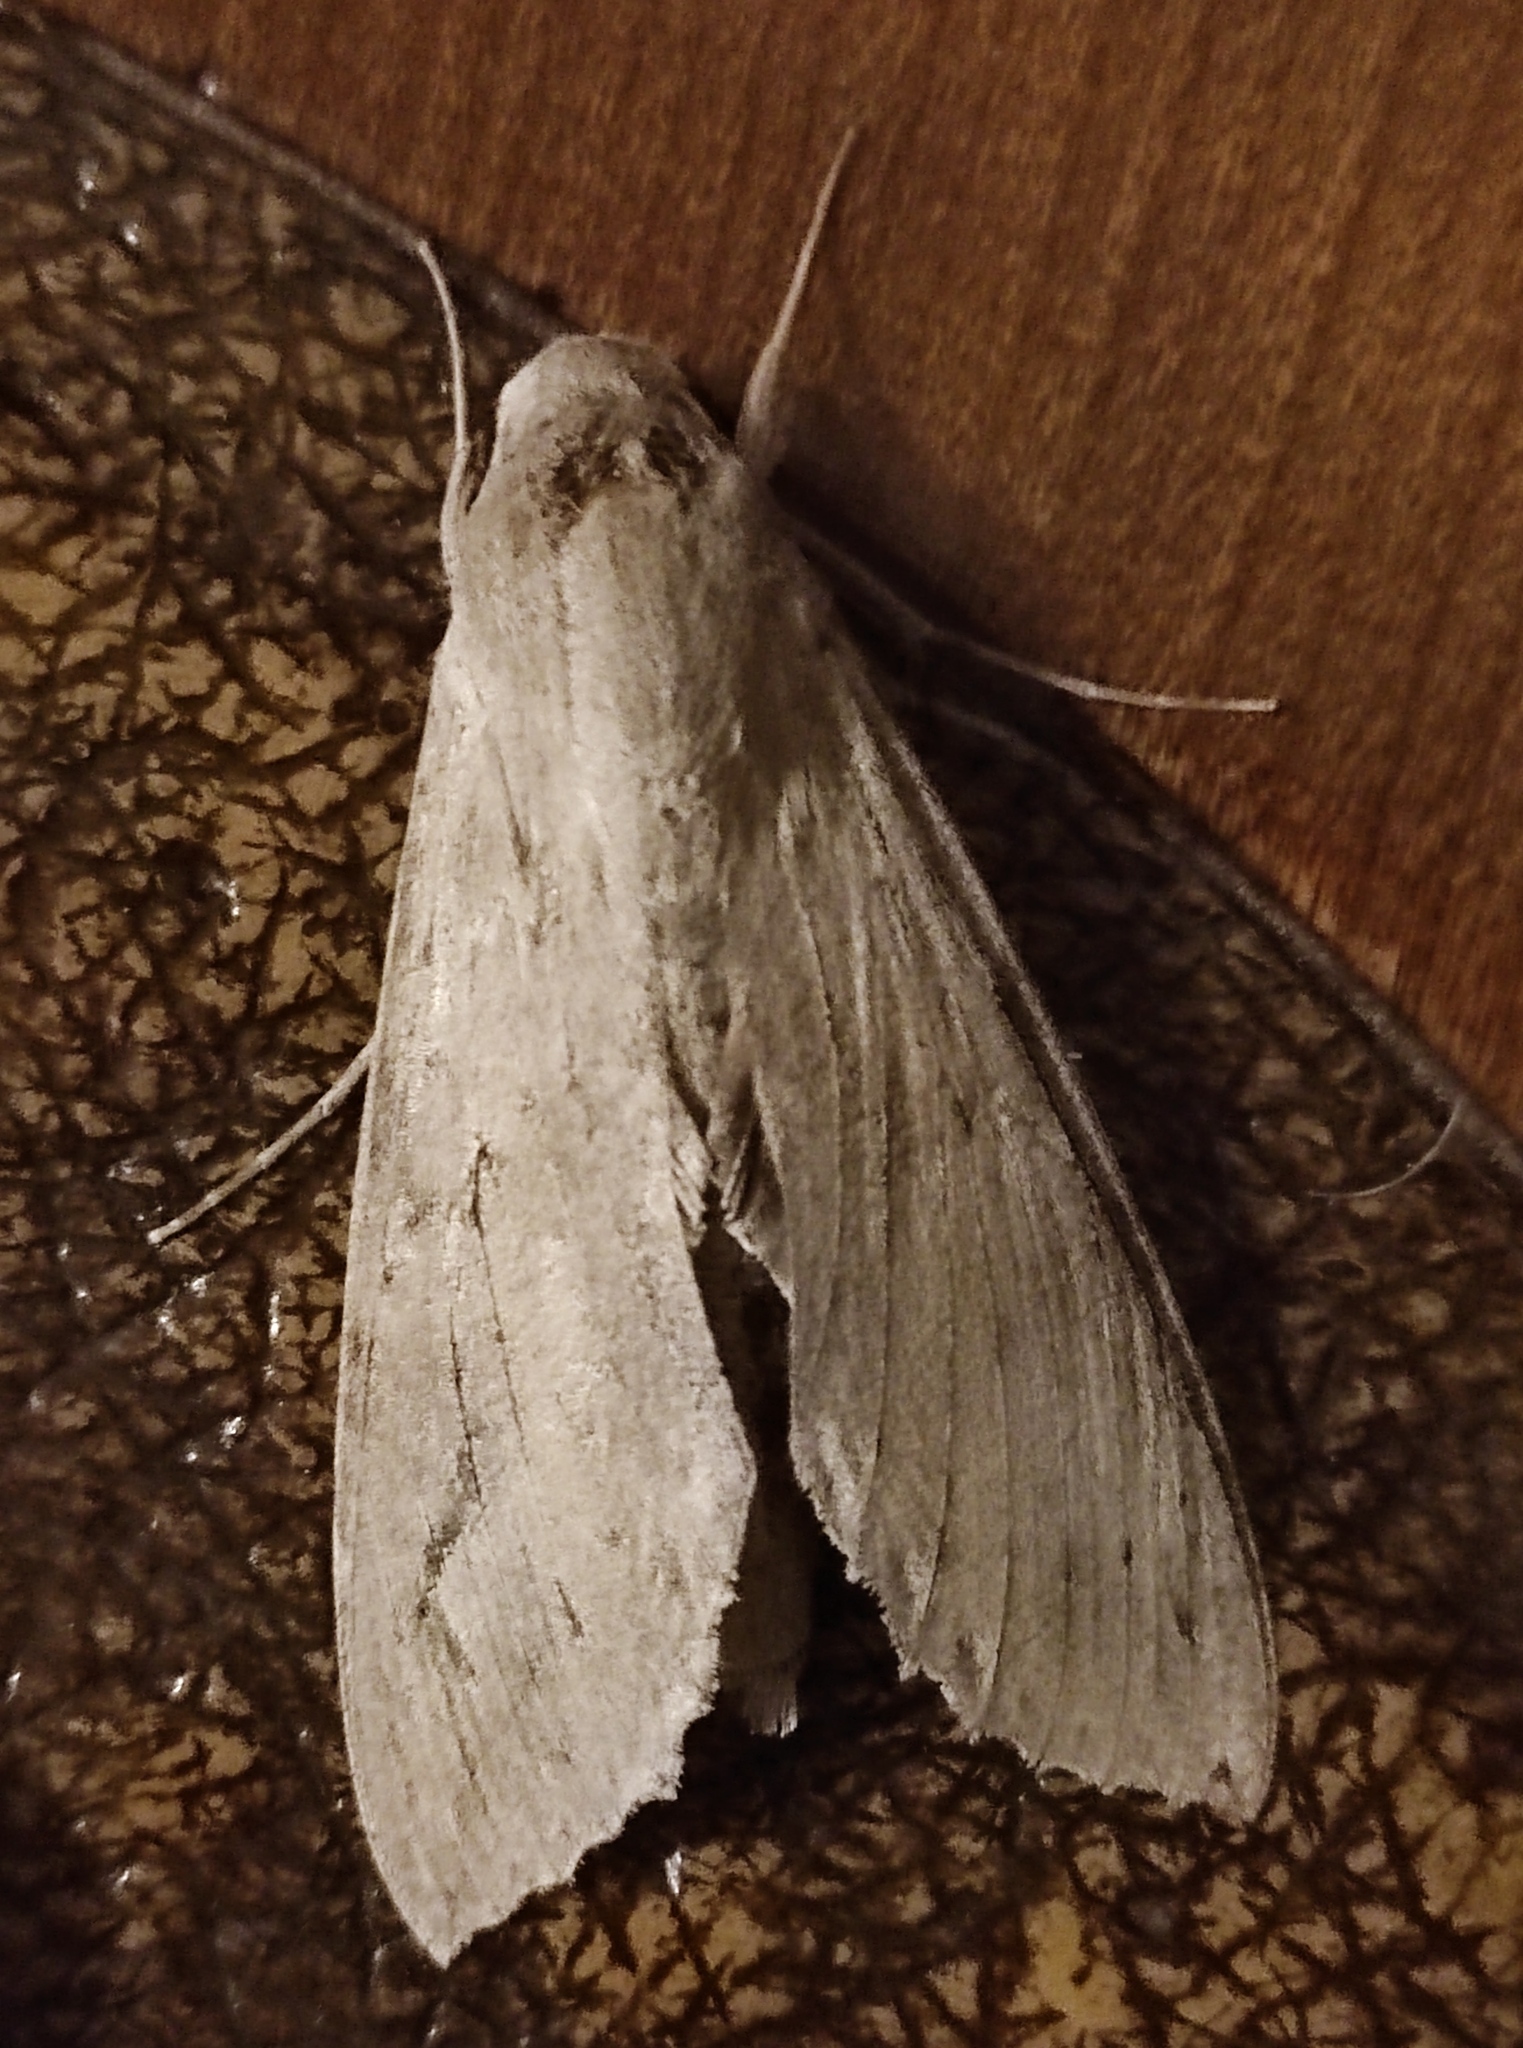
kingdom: Animalia
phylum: Arthropoda
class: Insecta
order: Lepidoptera
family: Sphingidae
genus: Erinnyis
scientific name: Erinnyis ello
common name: Ello sphinx
